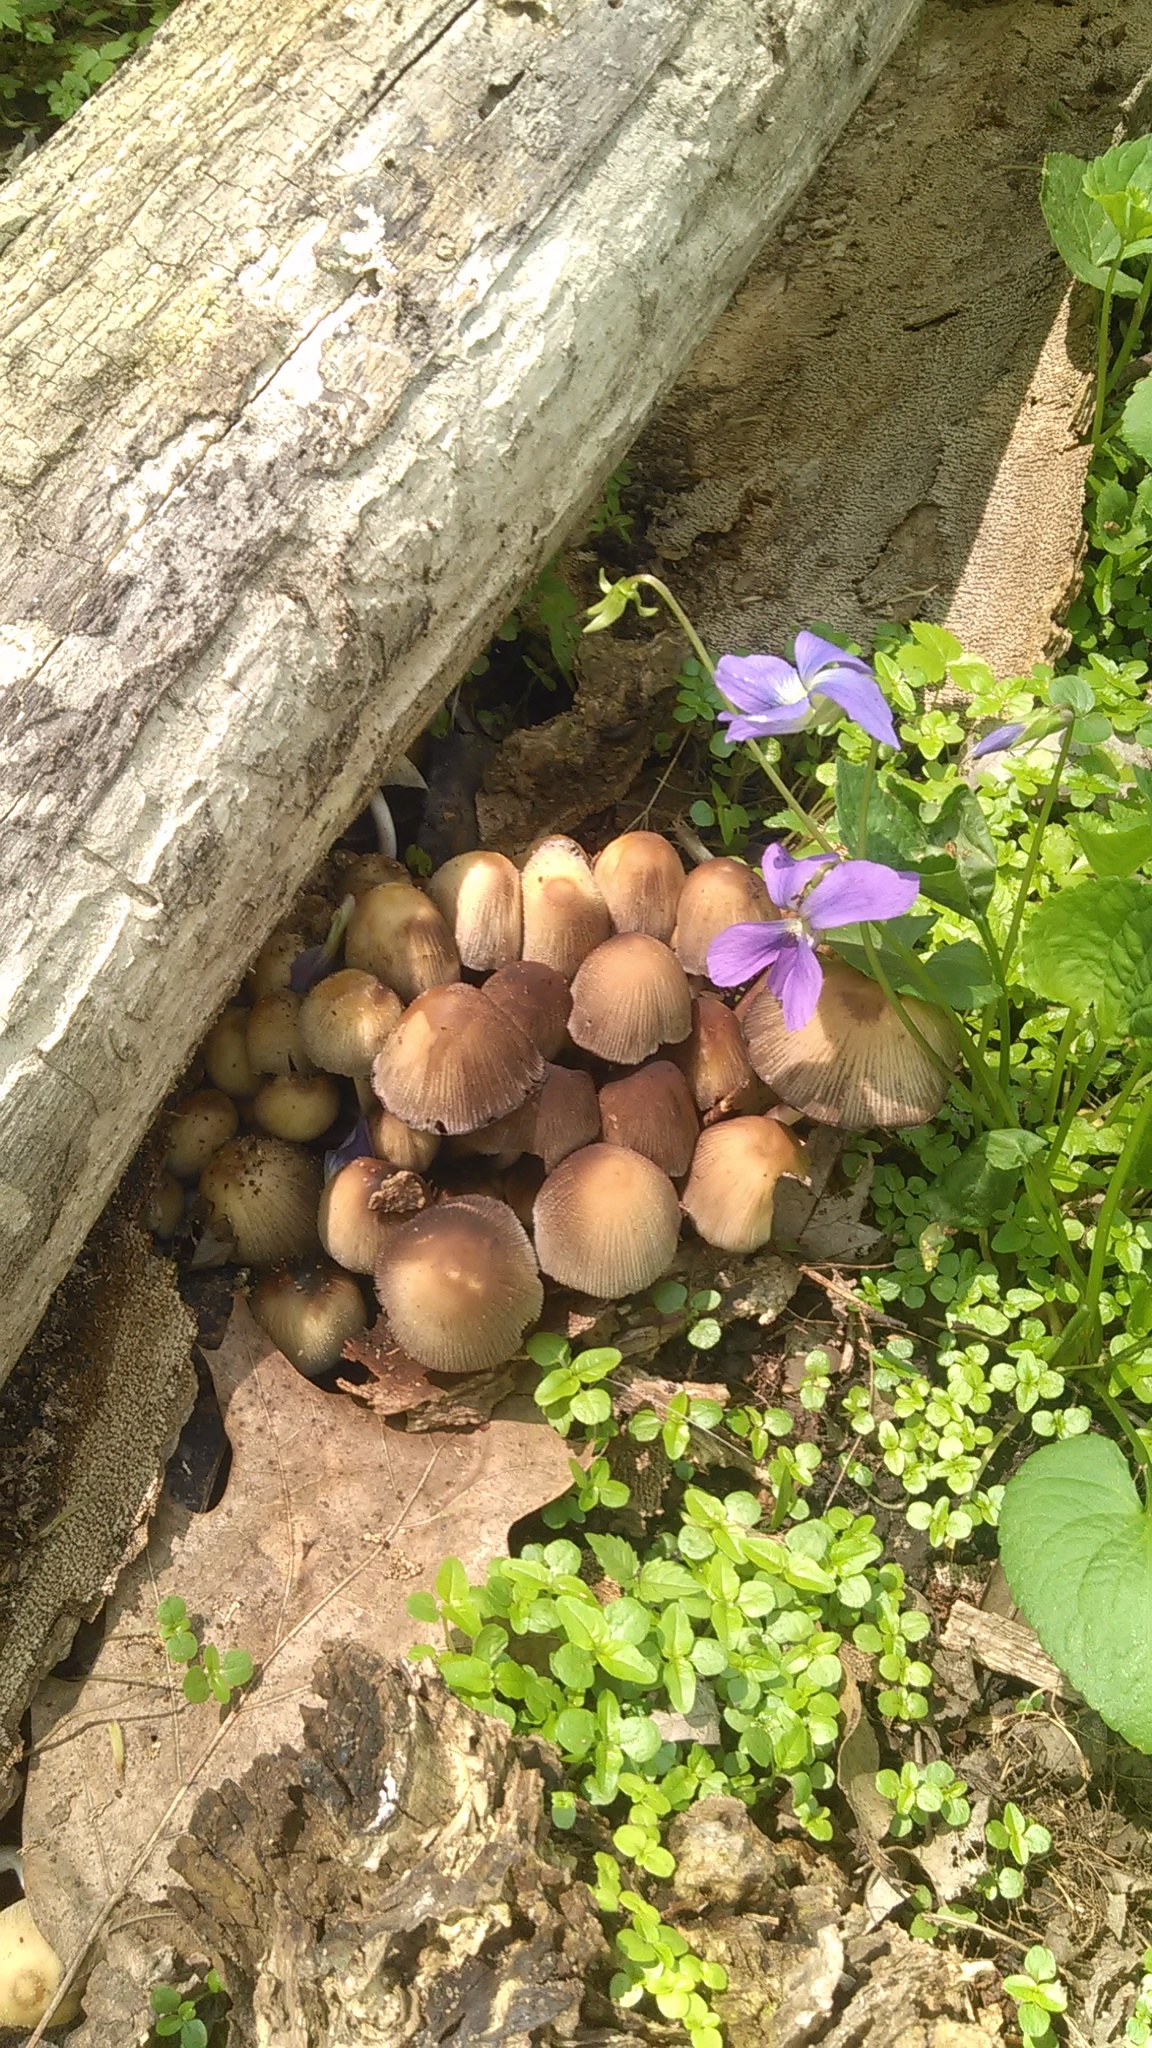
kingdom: Fungi
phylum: Basidiomycota
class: Agaricomycetes
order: Agaricales
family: Psathyrellaceae
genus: Coprinellus
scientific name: Coprinellus micaceus
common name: Glistening ink-cap
